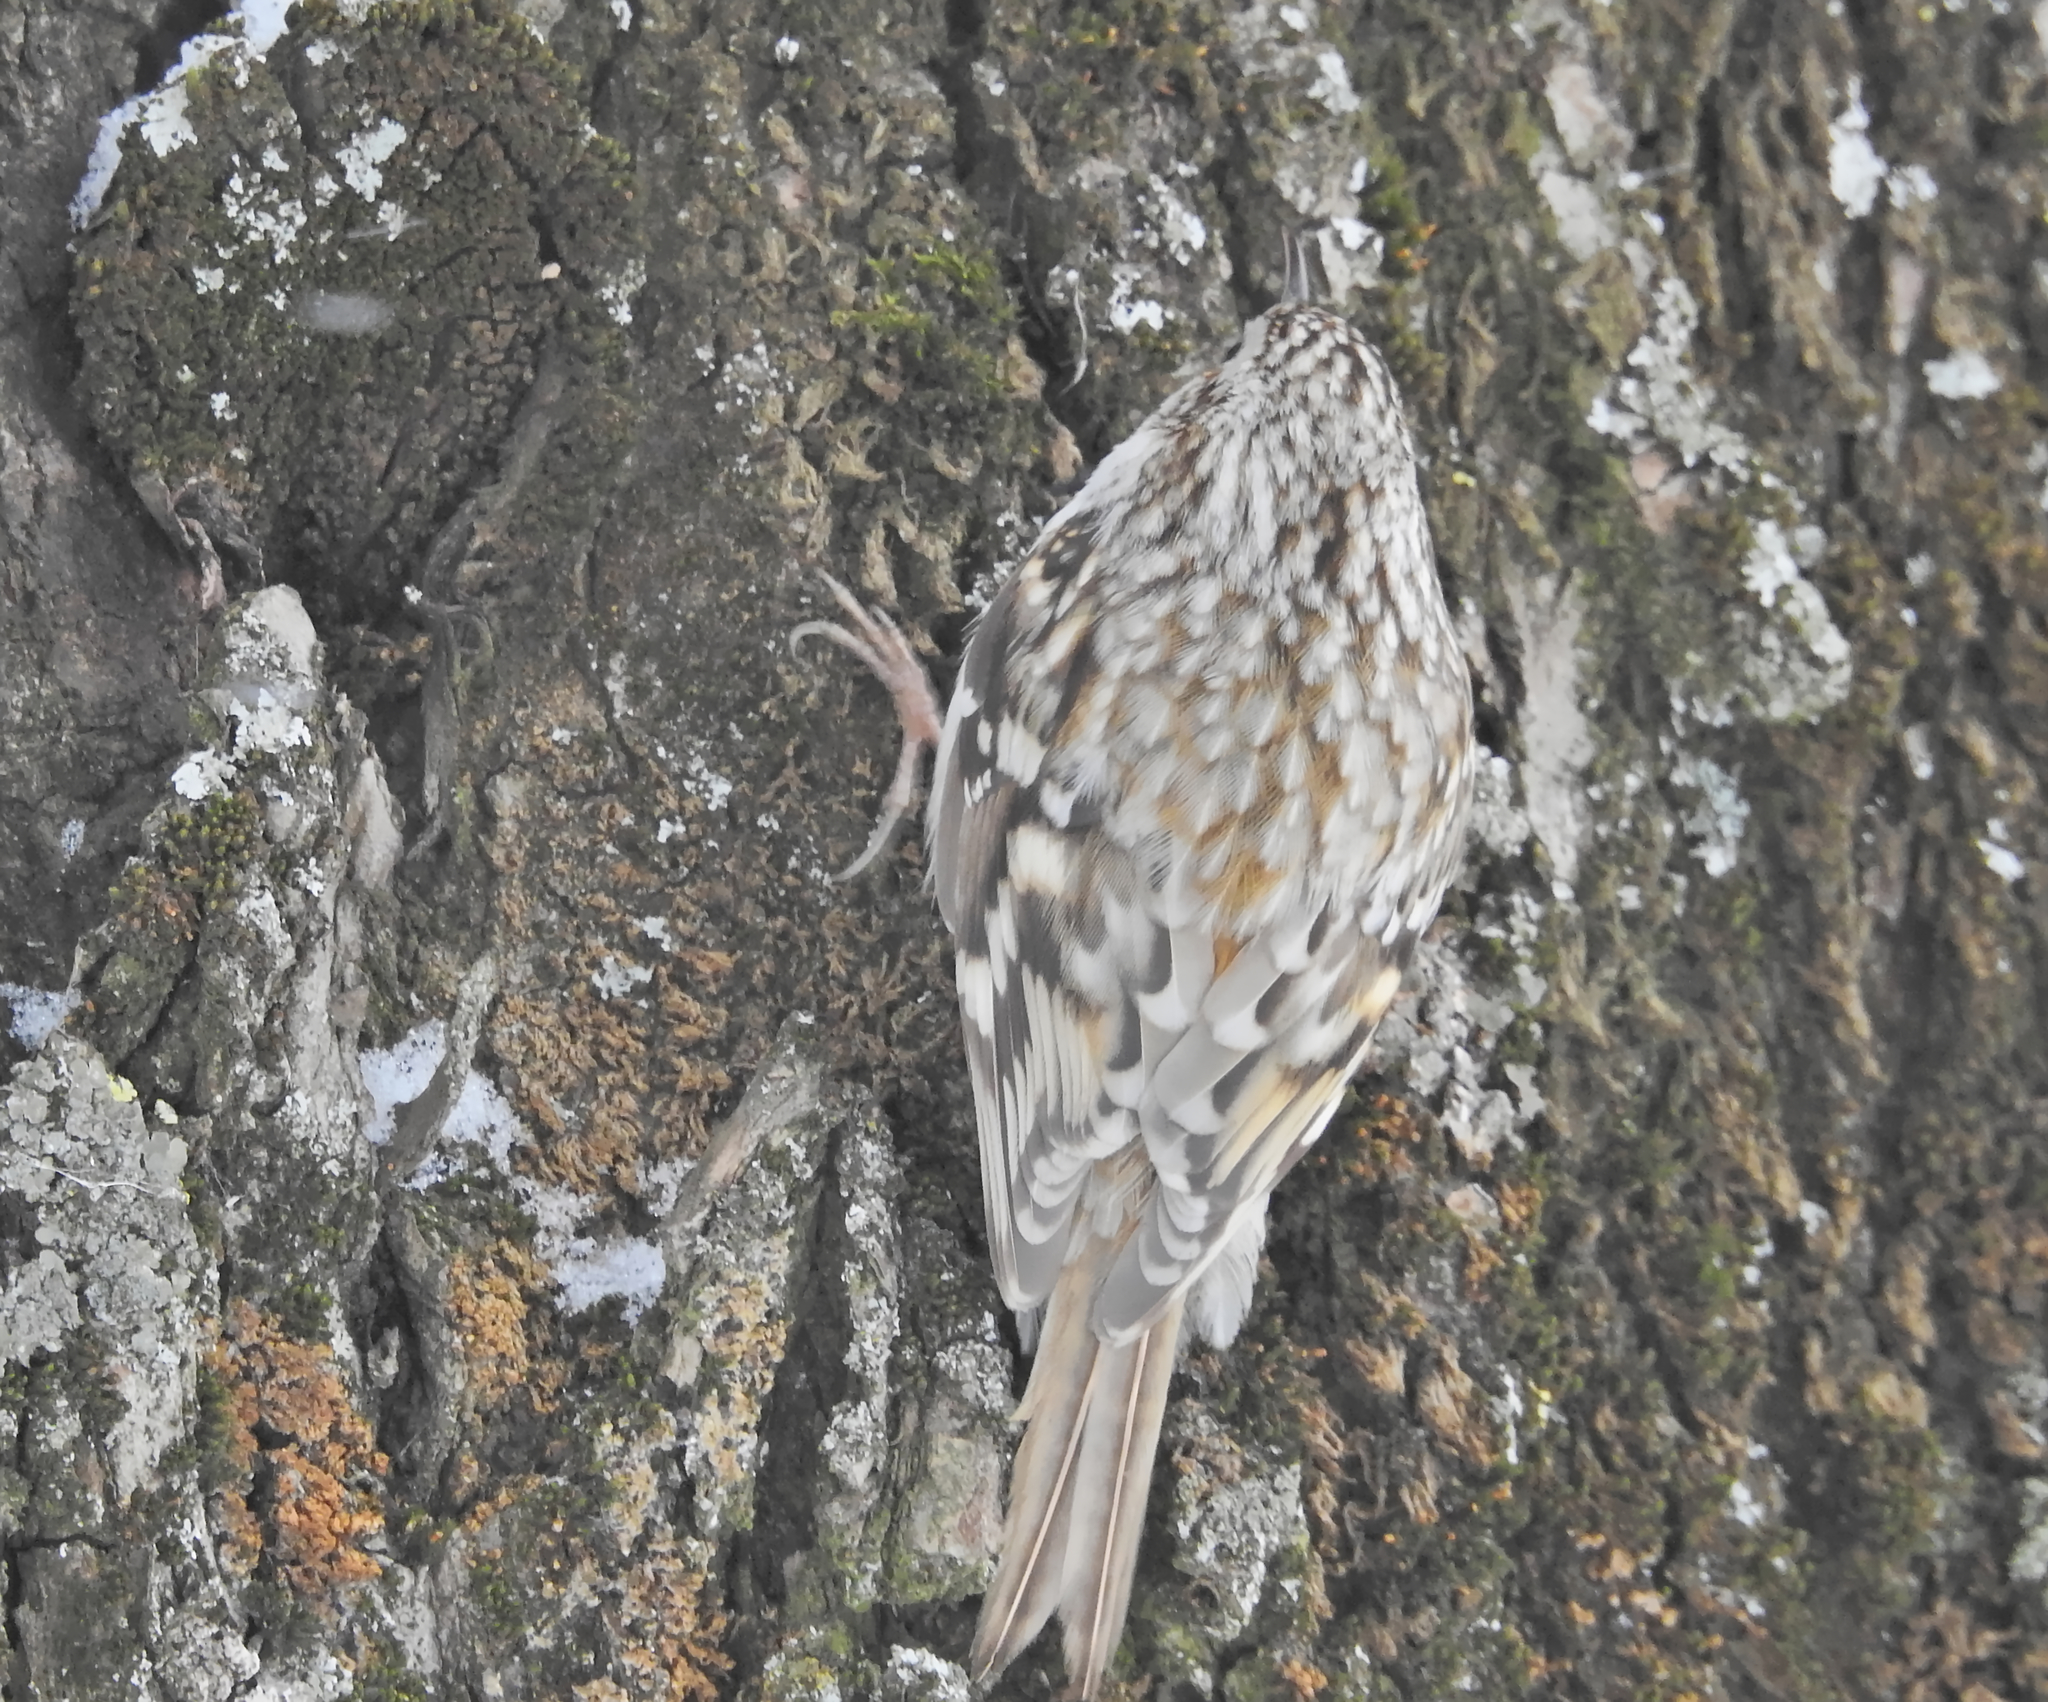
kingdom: Animalia
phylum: Chordata
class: Aves
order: Passeriformes
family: Certhiidae
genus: Certhia
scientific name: Certhia familiaris
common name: Eurasian treecreeper
